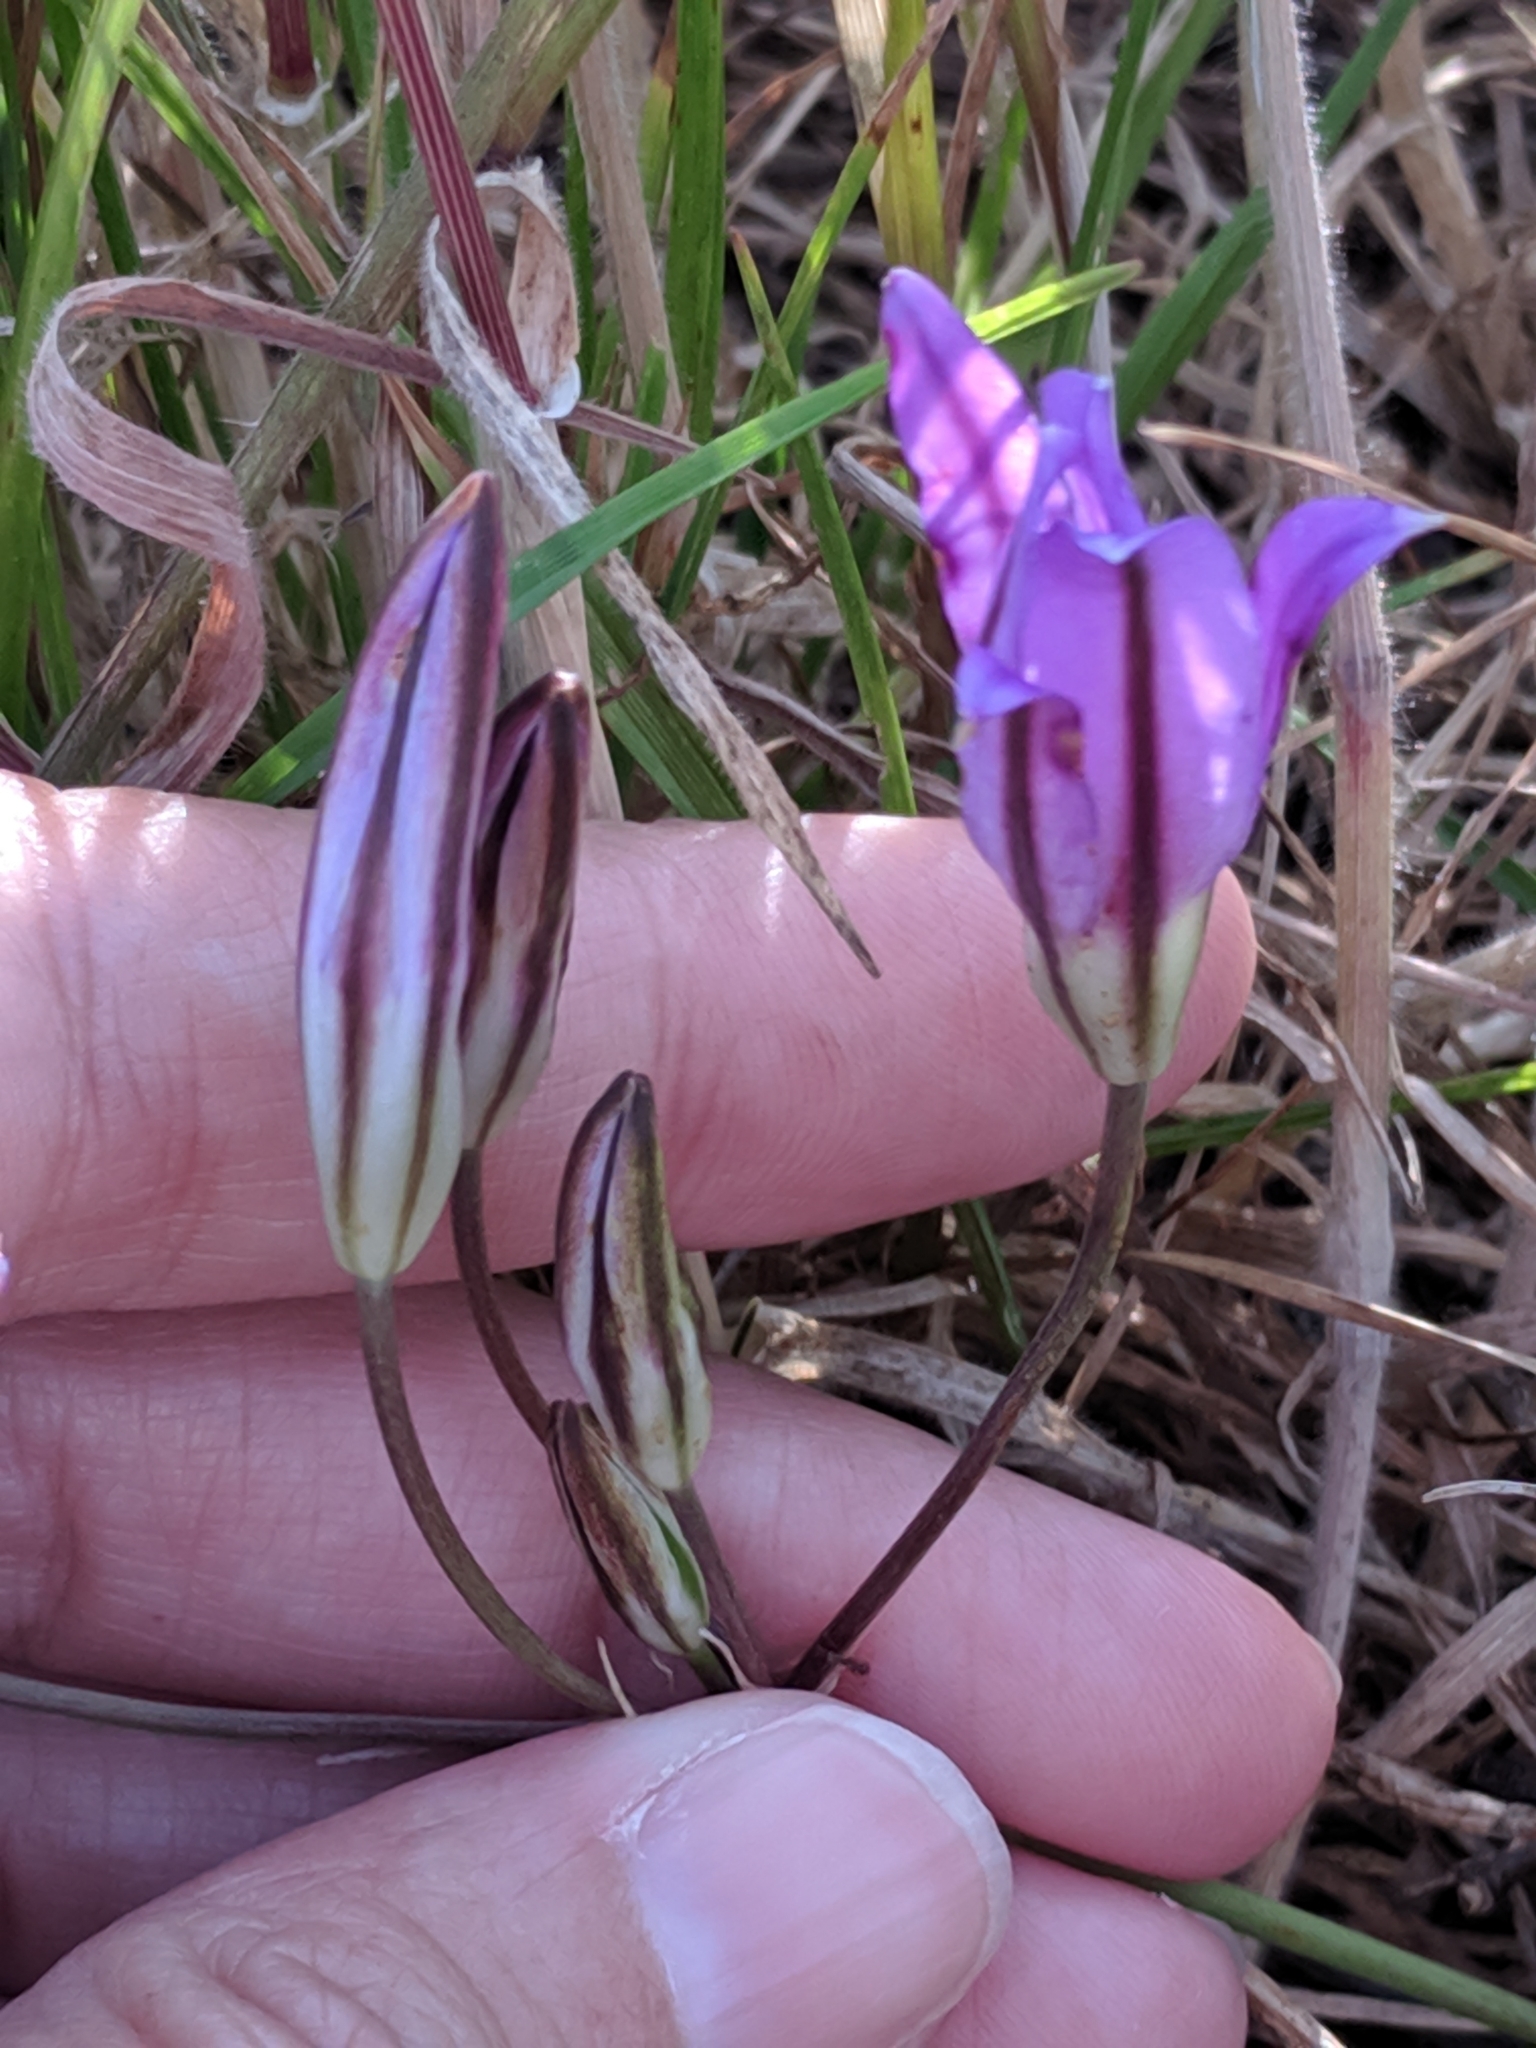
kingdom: Plantae
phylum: Tracheophyta
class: Liliopsida
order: Asparagales
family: Asparagaceae
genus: Brodiaea
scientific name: Brodiaea coronaria
